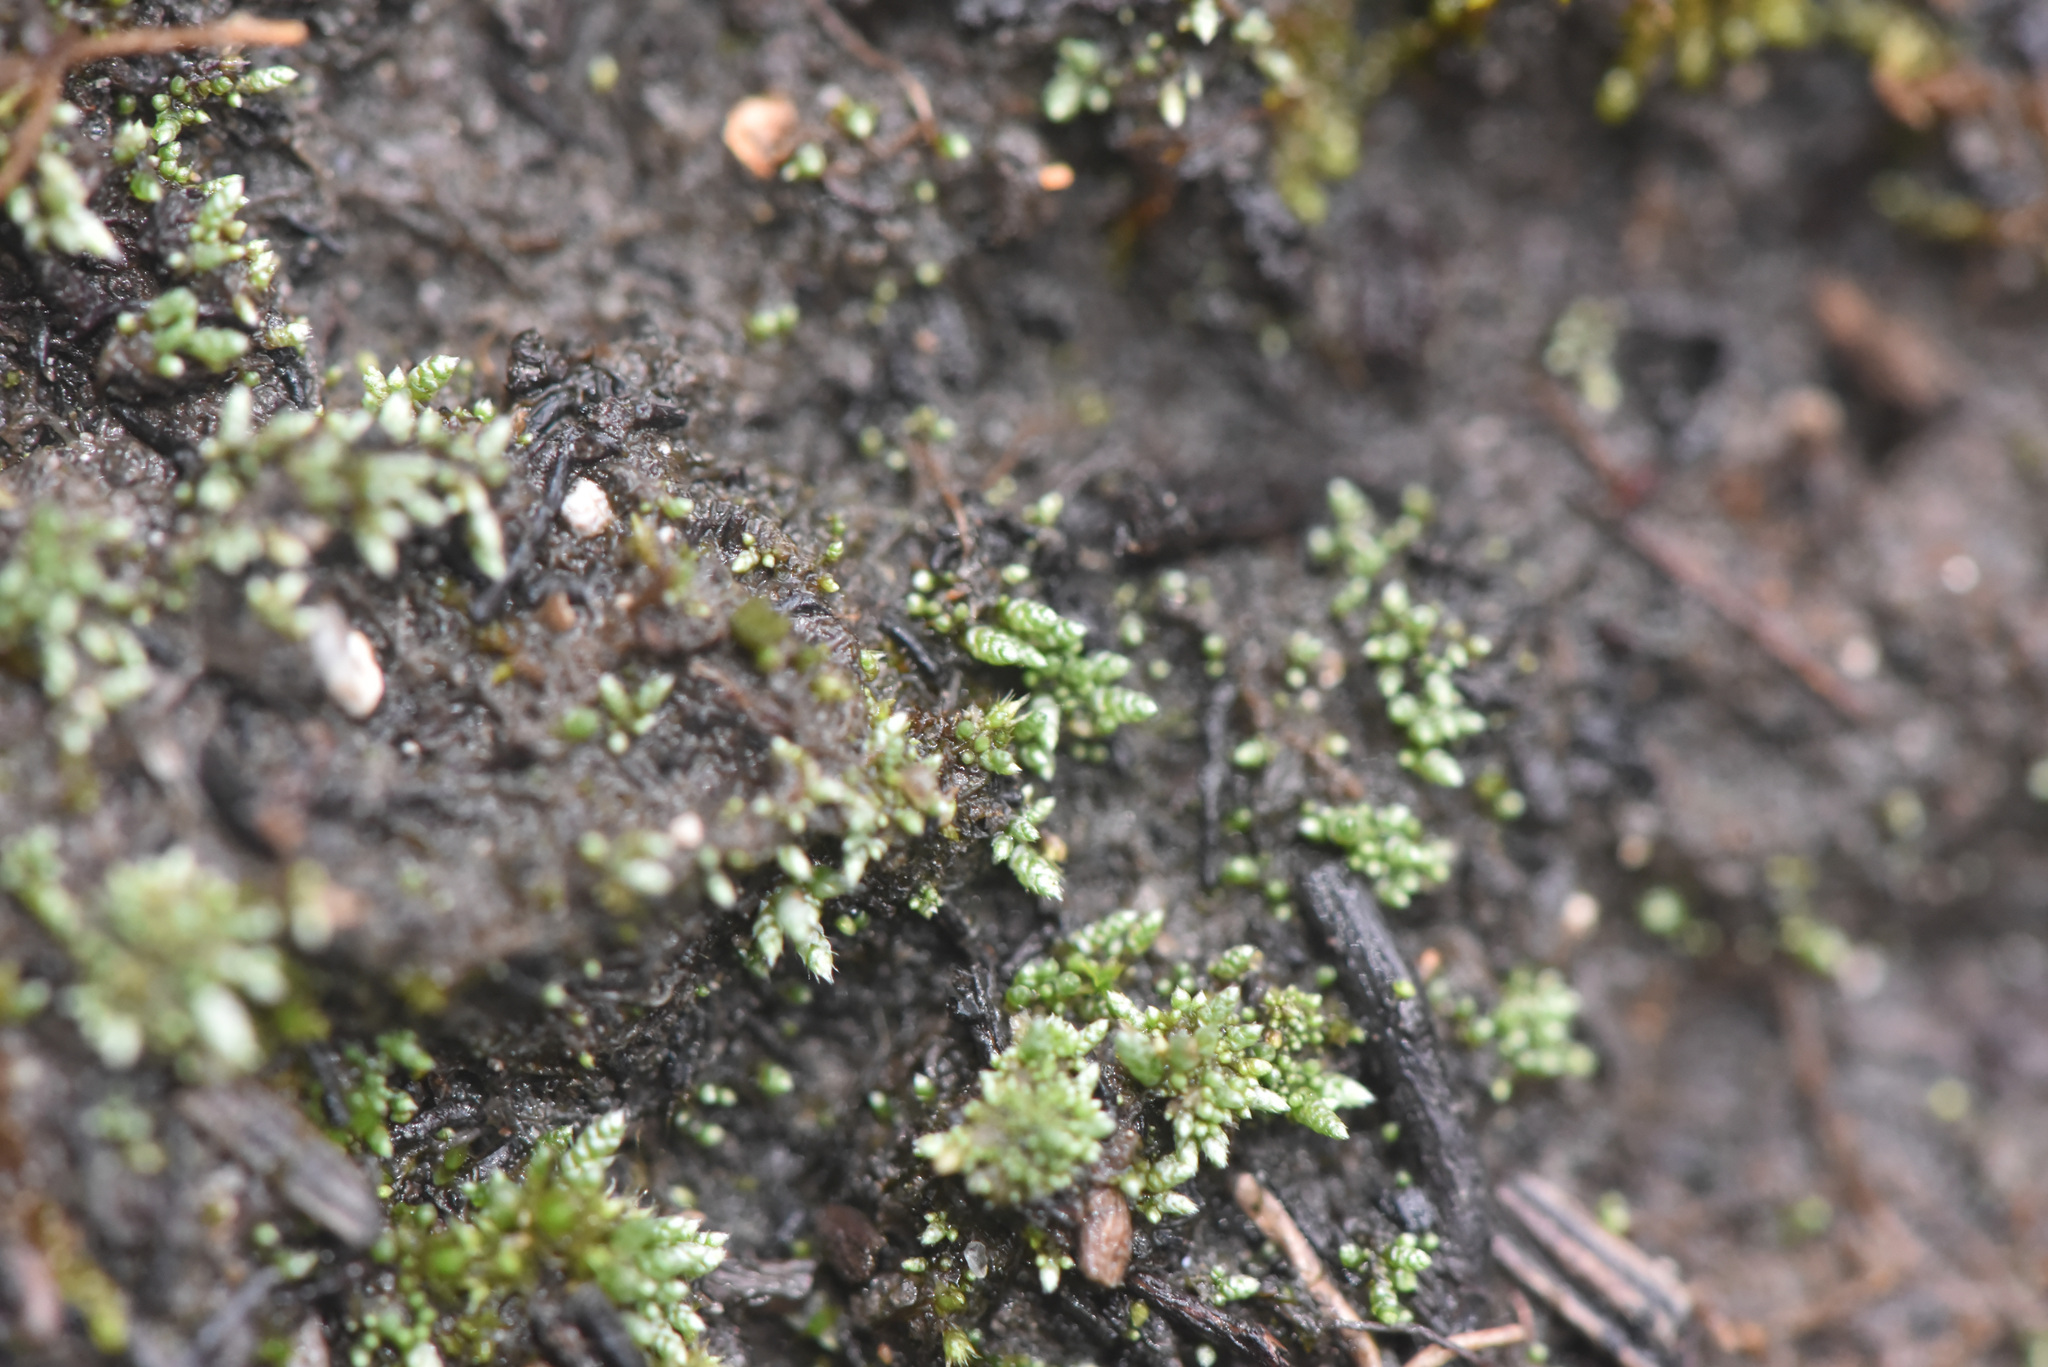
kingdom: Plantae
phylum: Bryophyta
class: Bryopsida
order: Bryales
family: Bryaceae
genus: Bryum
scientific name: Bryum argenteum
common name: Silver-moss
